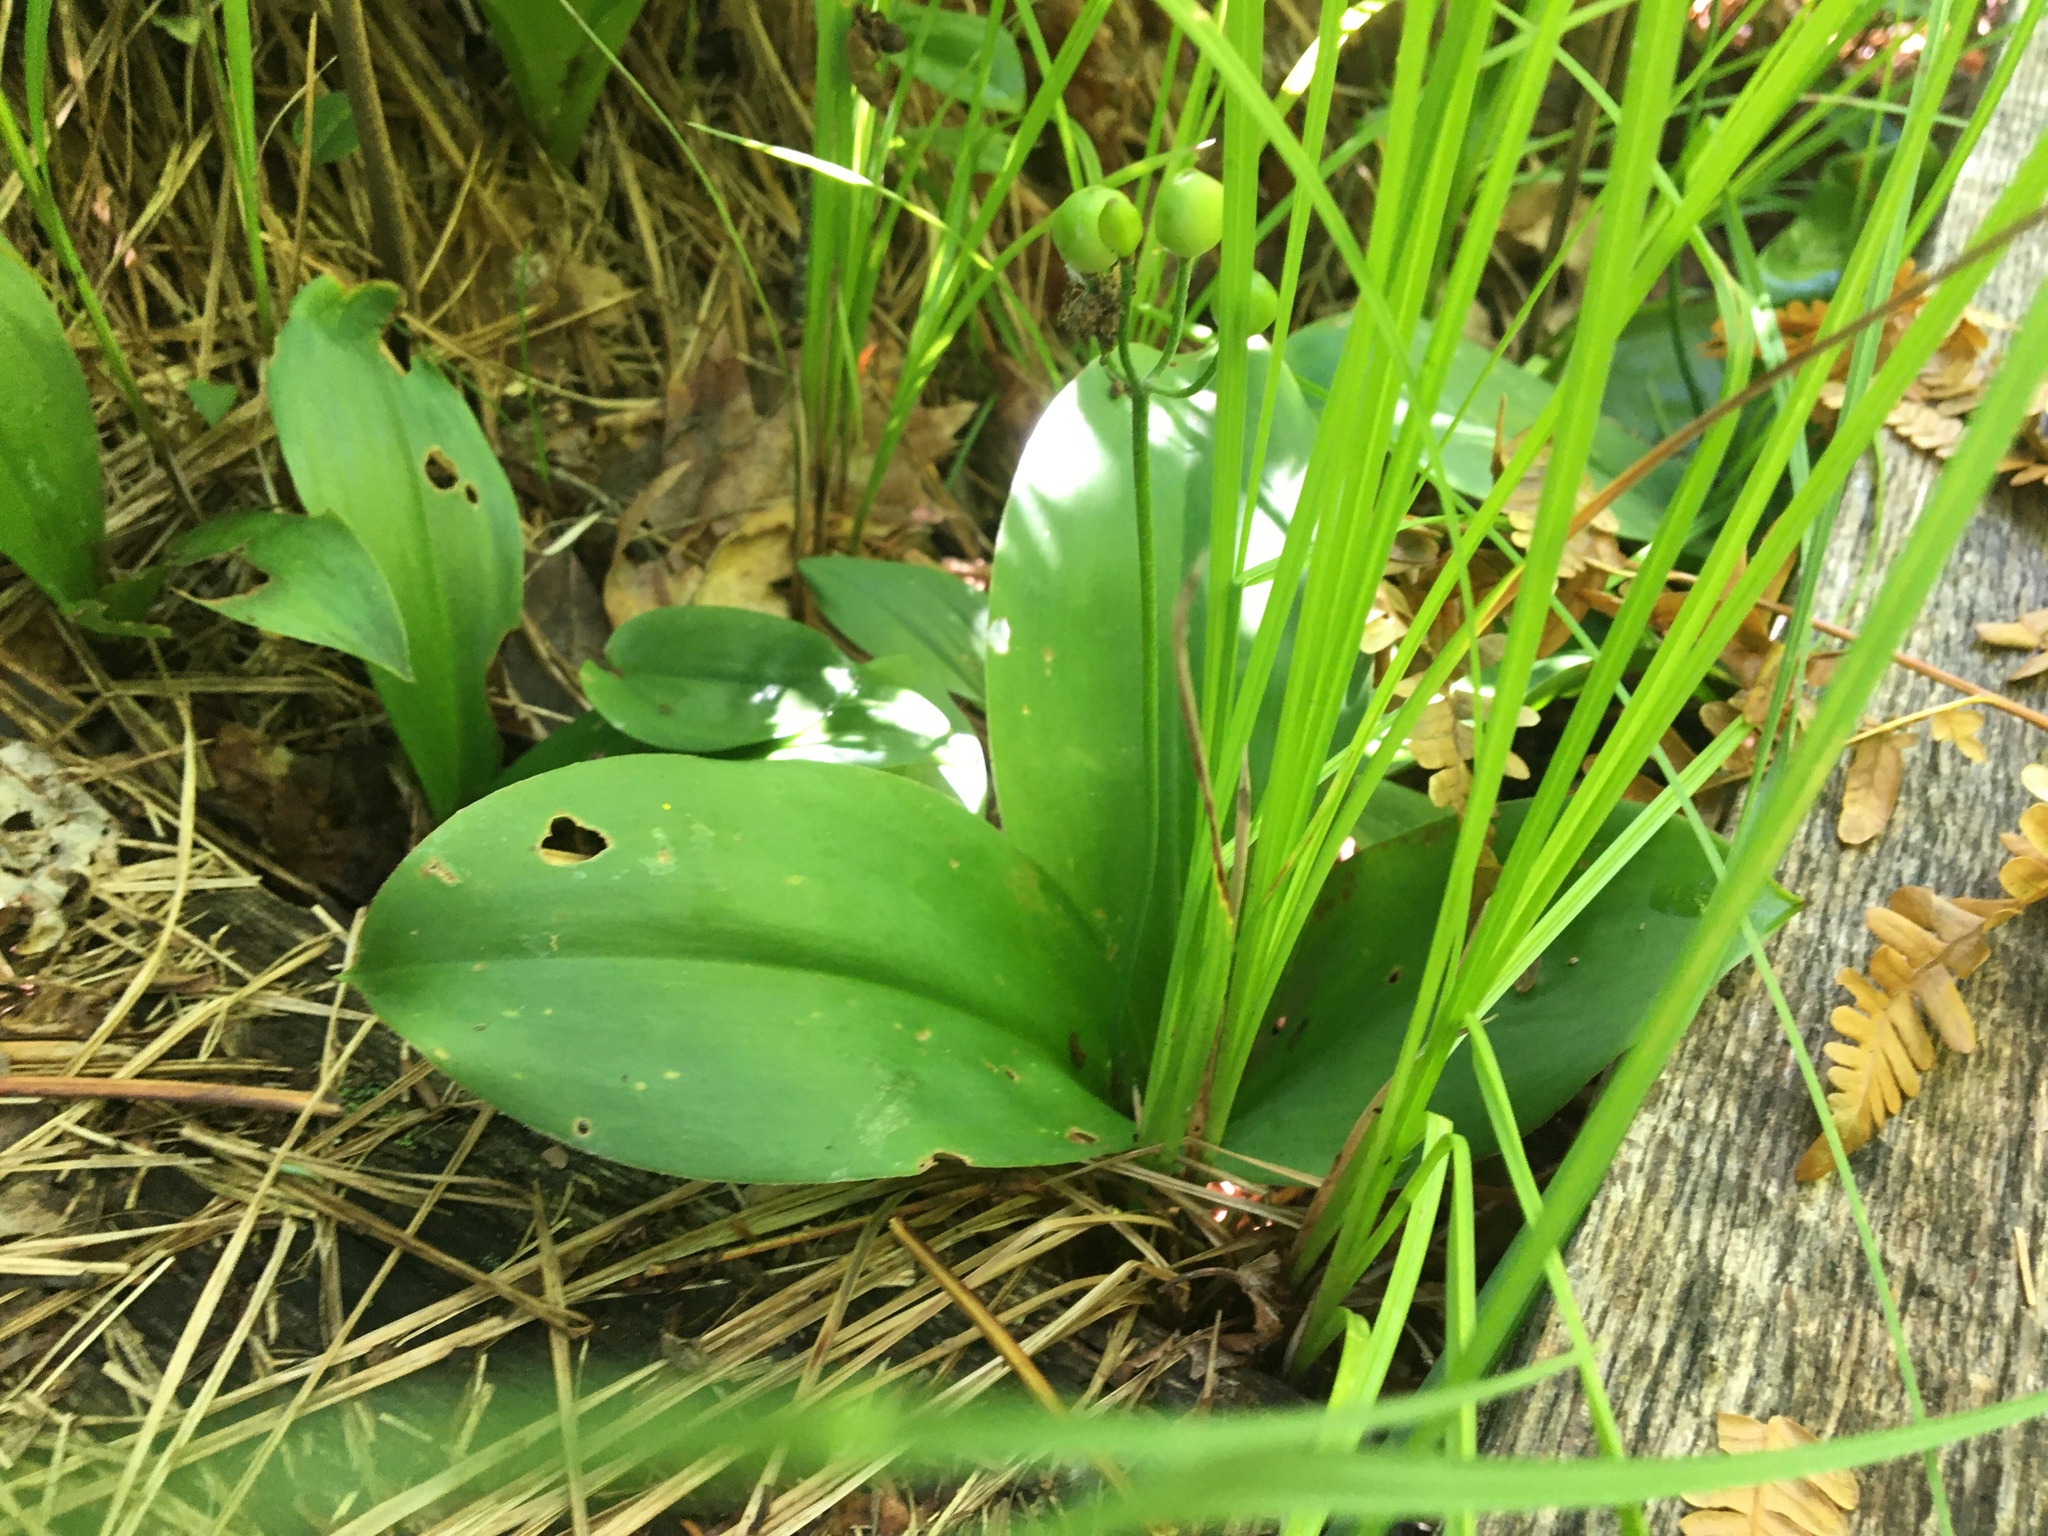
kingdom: Plantae
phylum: Tracheophyta
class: Liliopsida
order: Liliales
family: Liliaceae
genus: Clintonia
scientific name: Clintonia borealis
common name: Yellow clintonia
